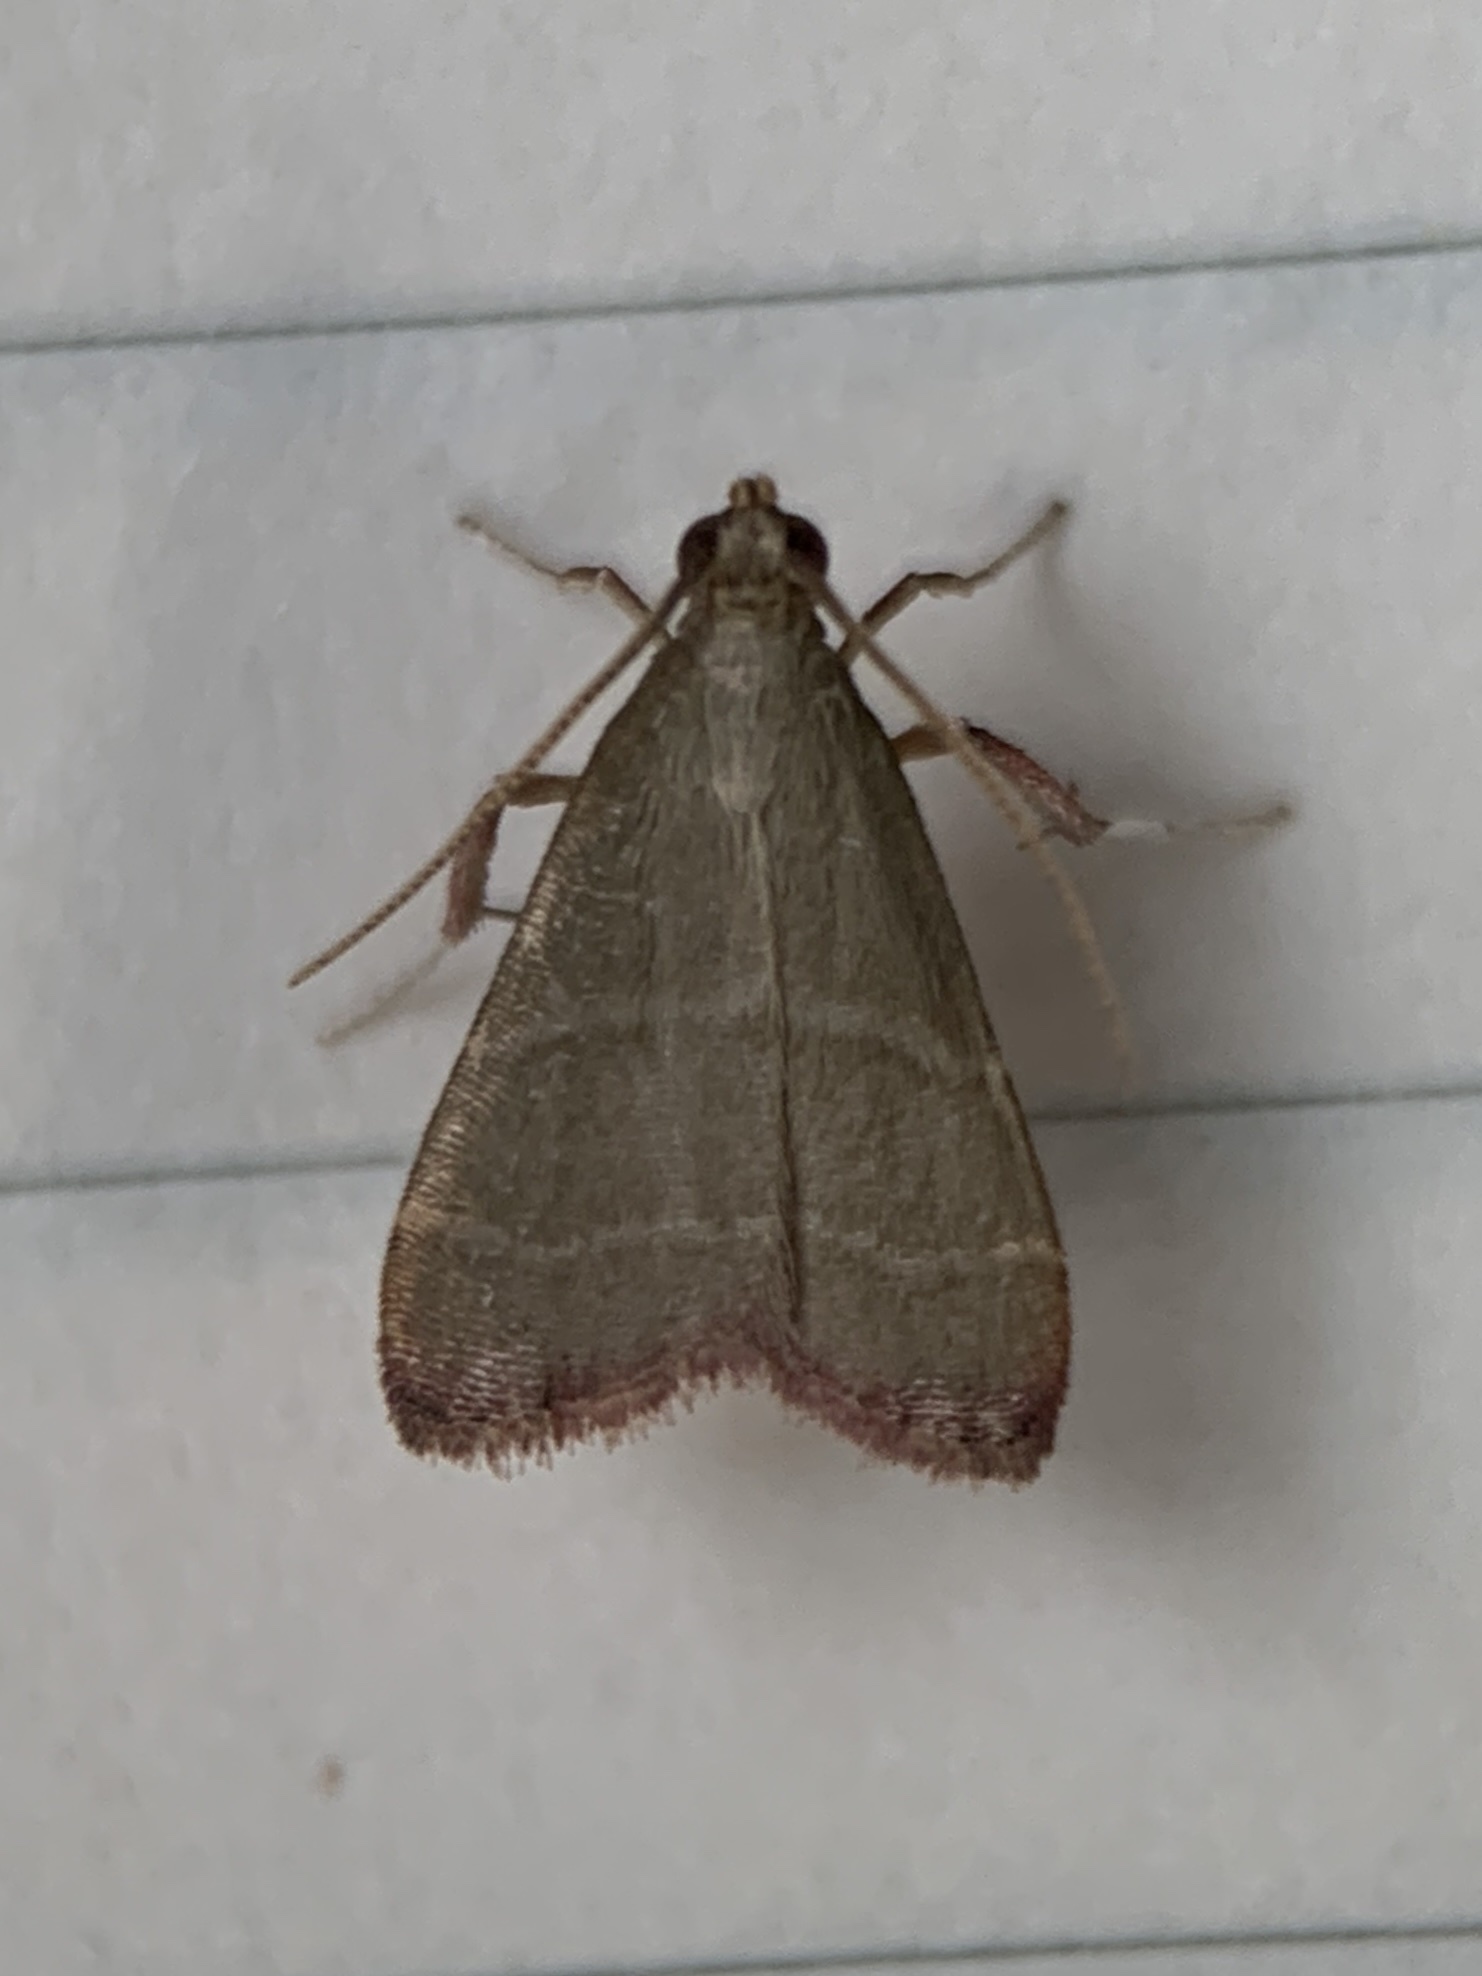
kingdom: Animalia
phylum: Arthropoda
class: Insecta
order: Lepidoptera
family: Pyralidae
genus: Arta
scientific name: Arta olivalis
